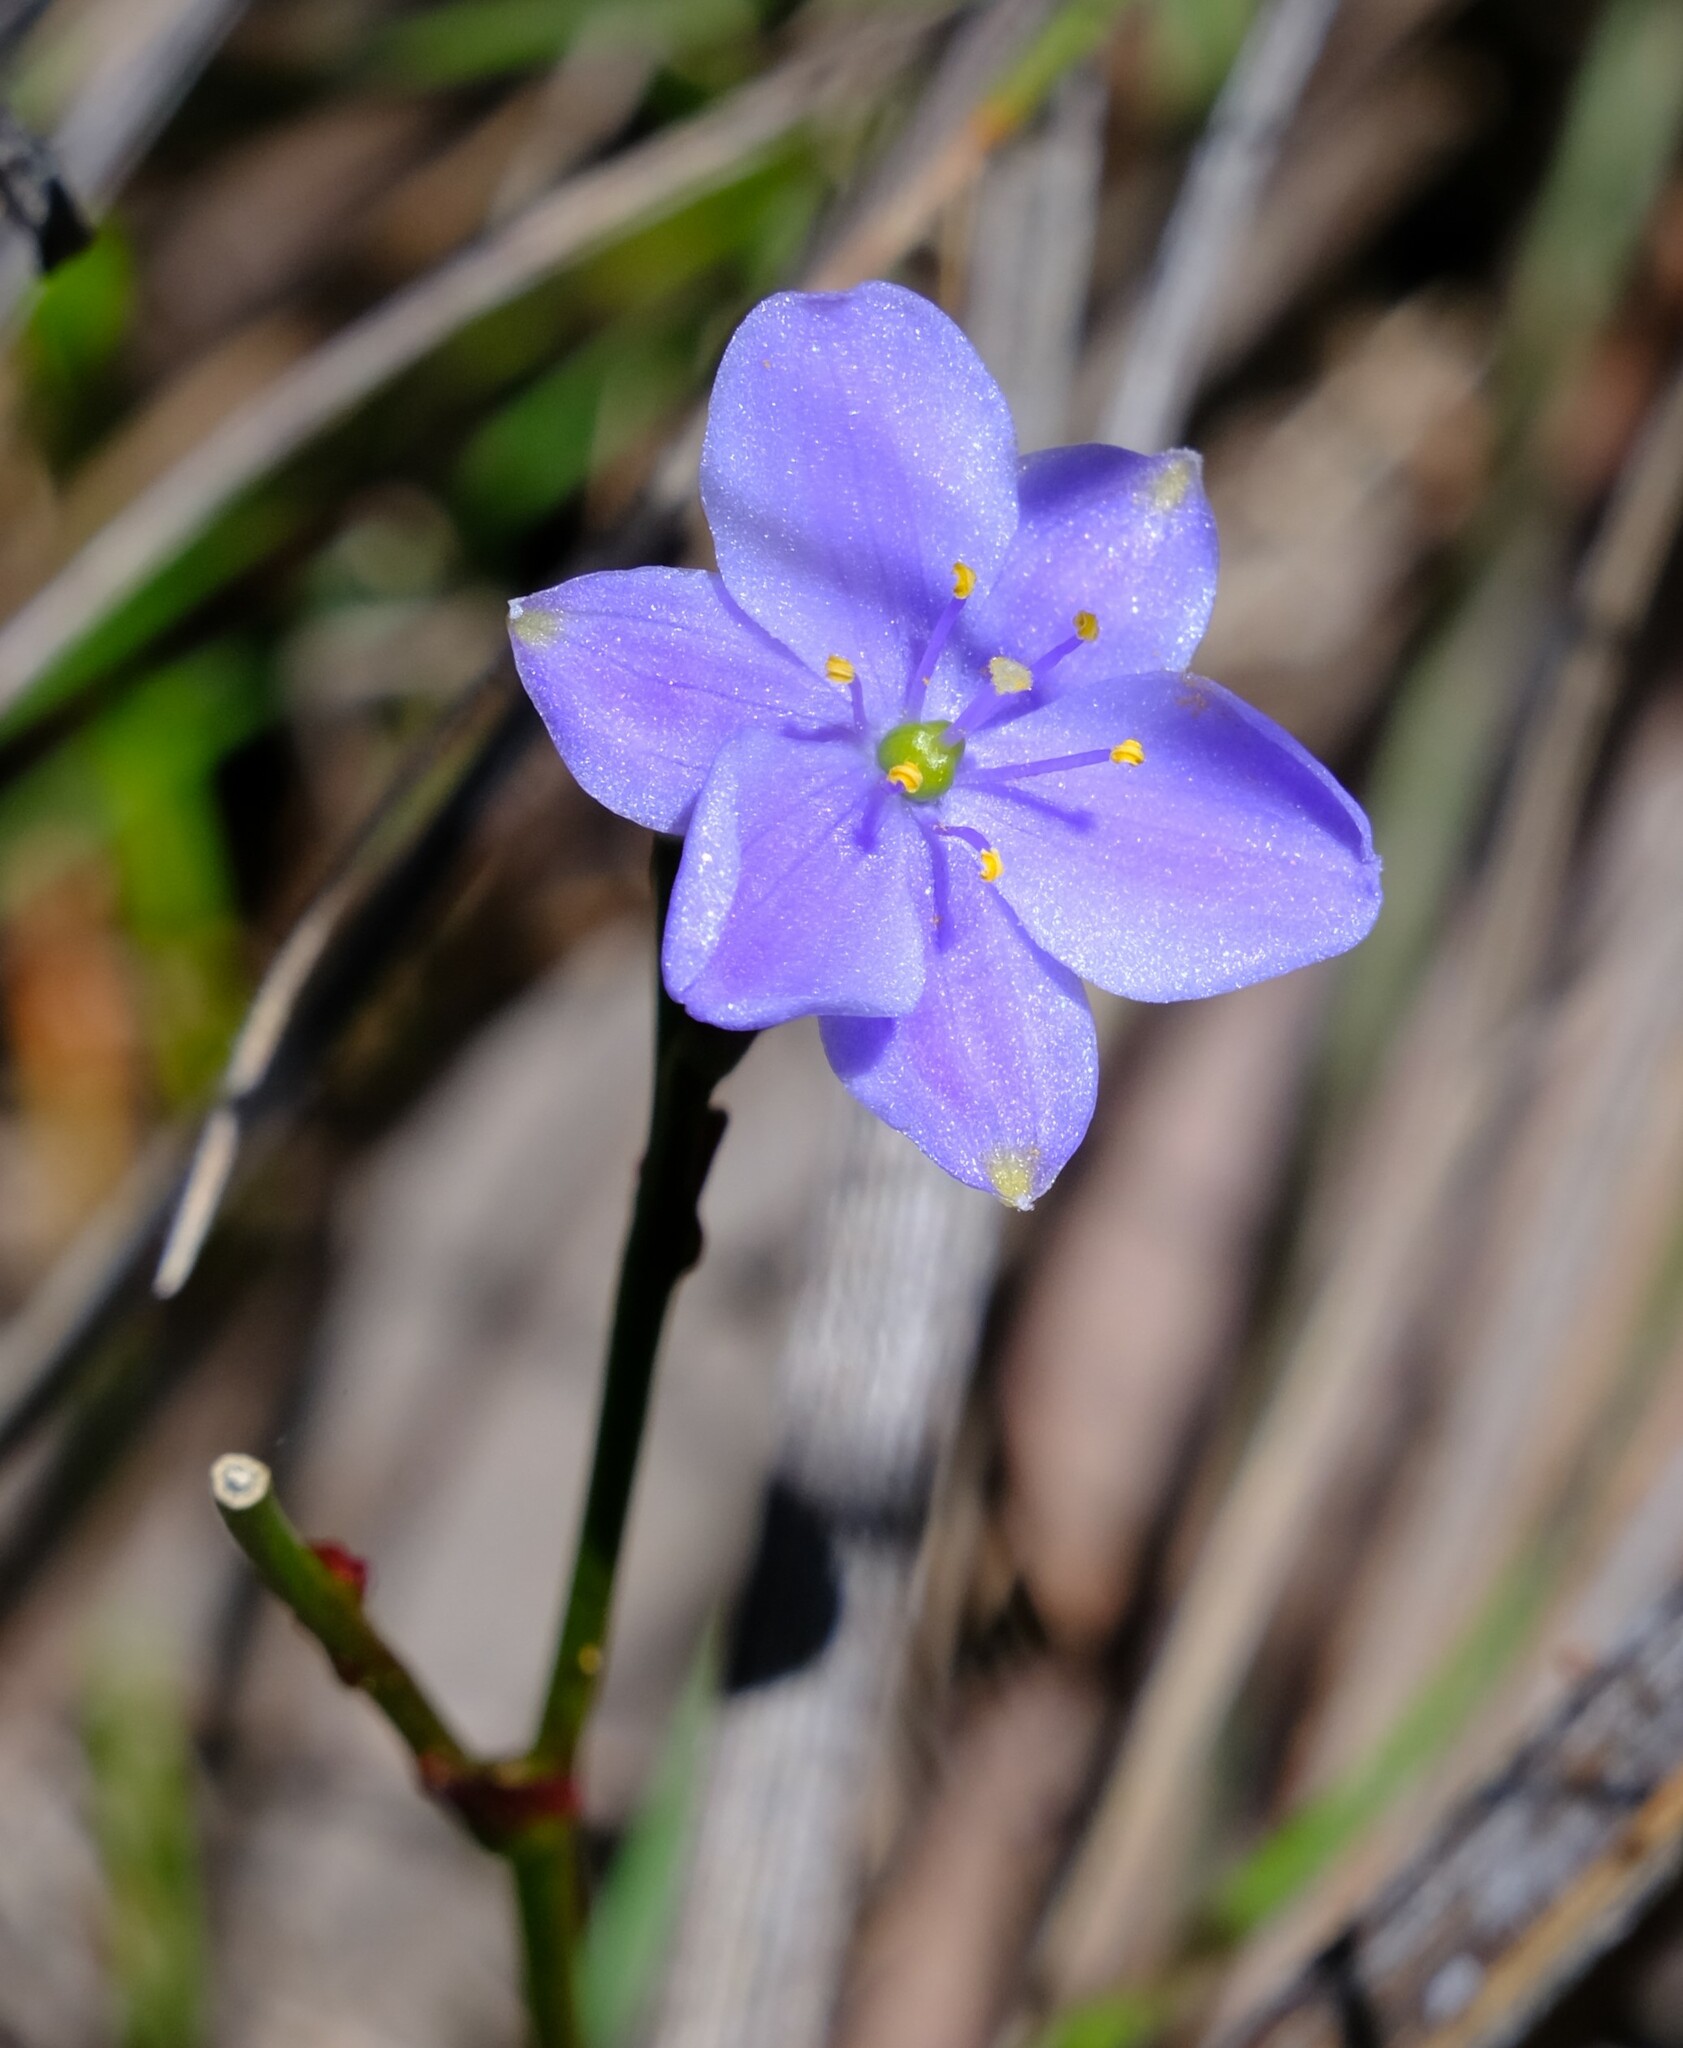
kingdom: Plantae
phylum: Tracheophyta
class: Liliopsida
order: Asparagales
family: Asphodelaceae
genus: Chamaescilla
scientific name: Chamaescilla corymbosa
